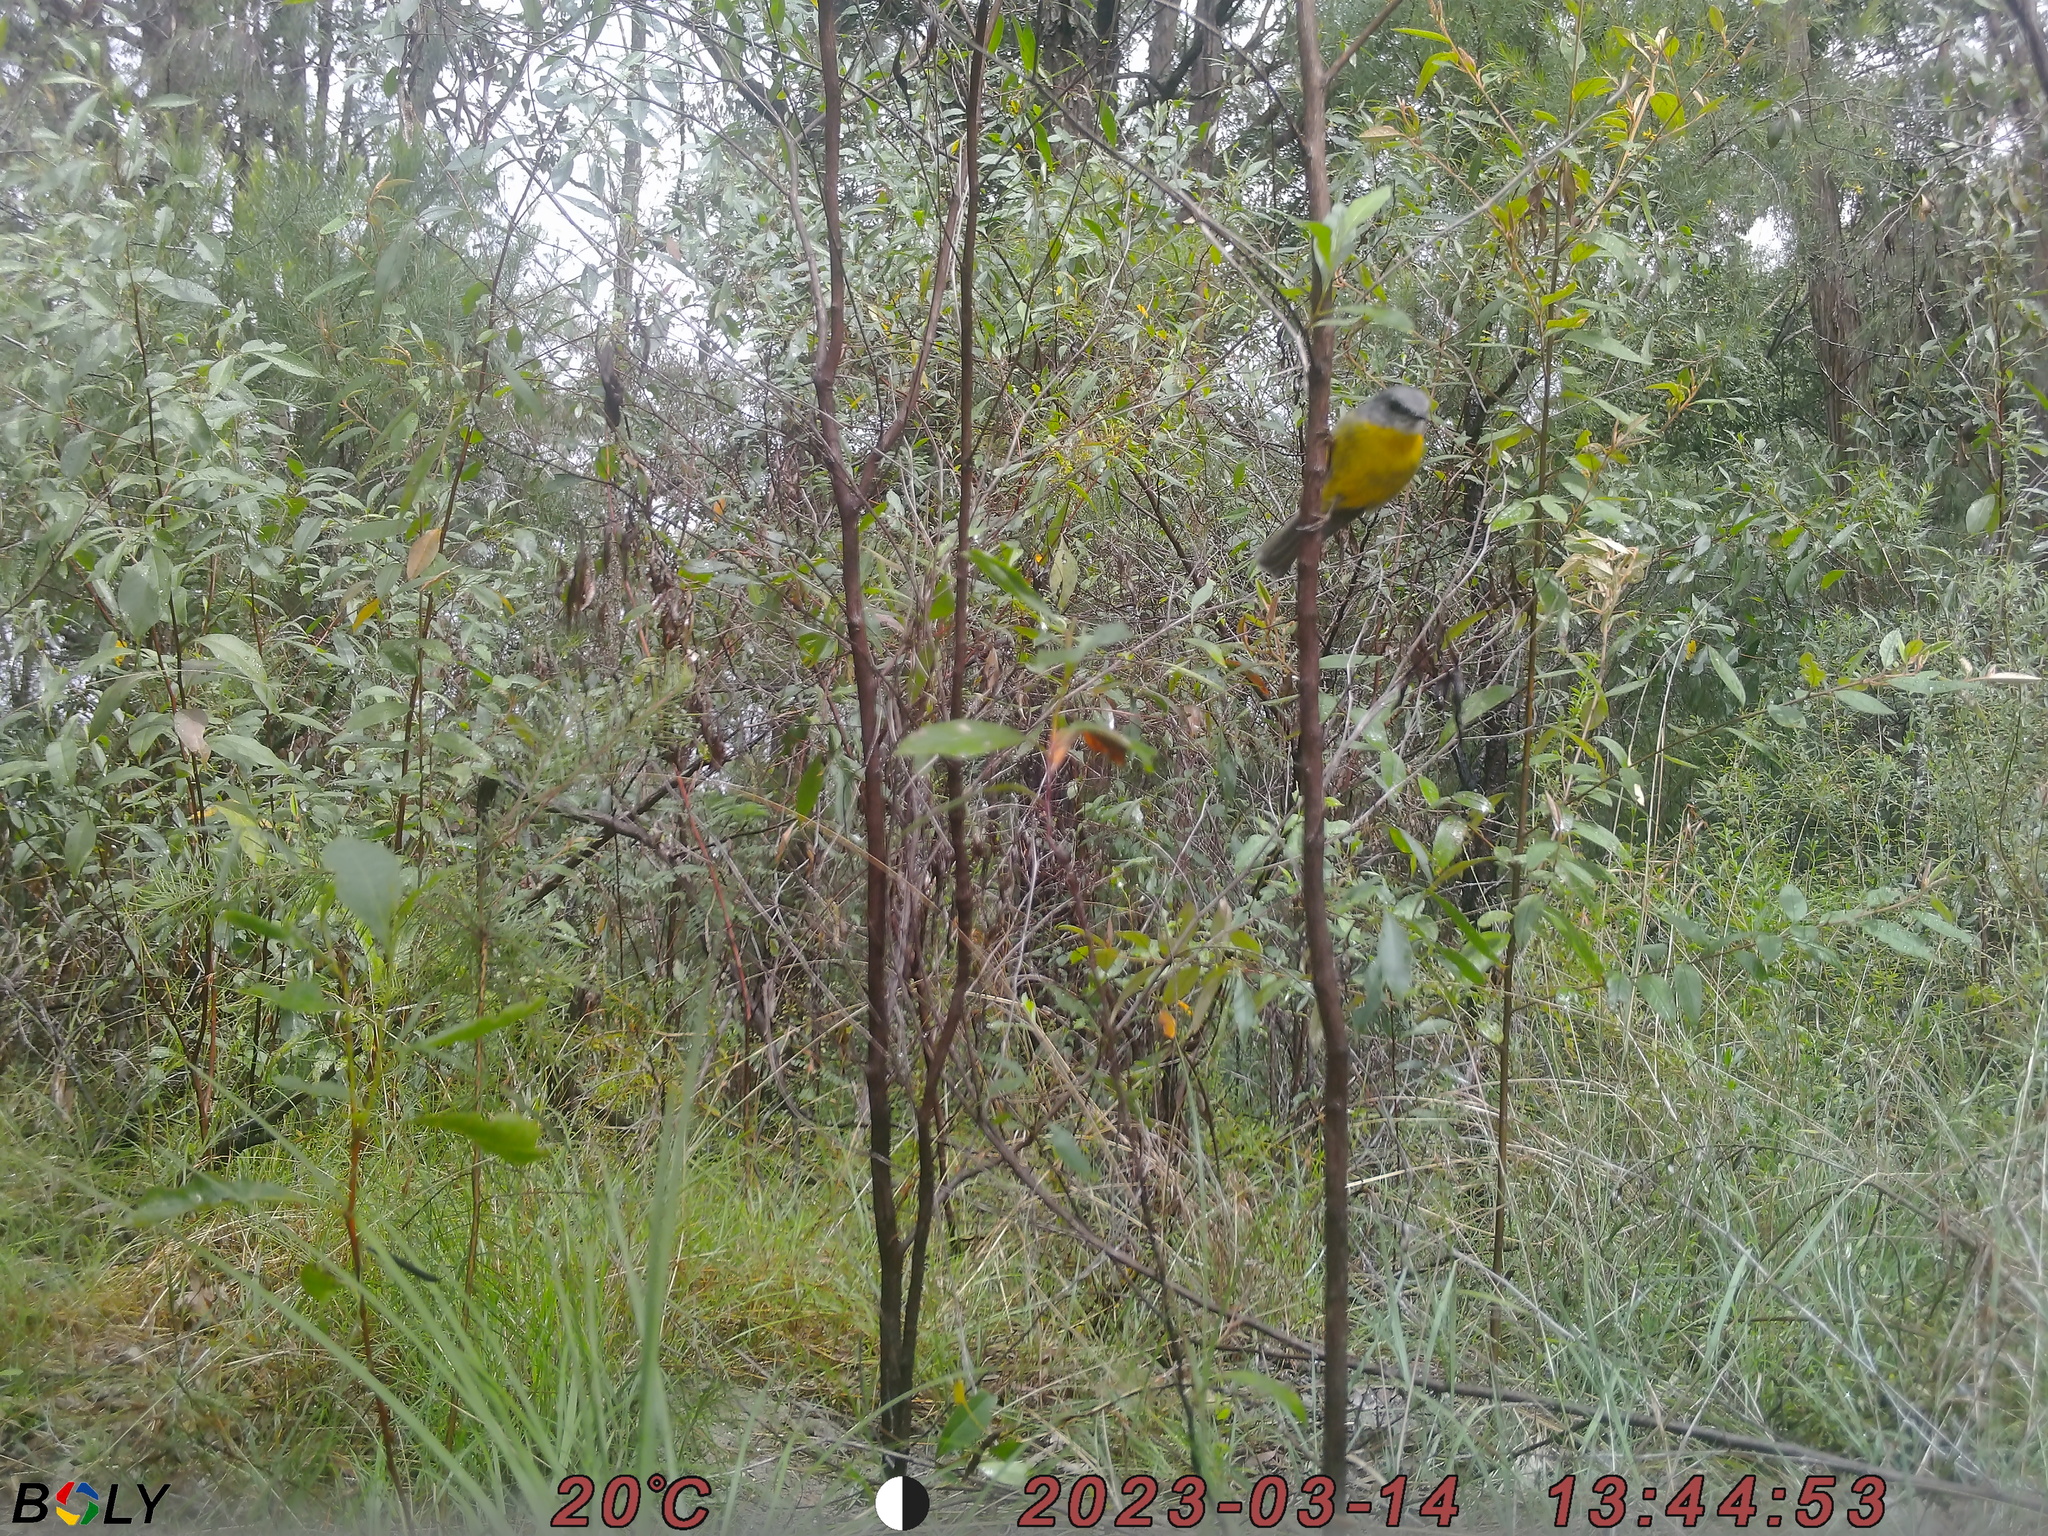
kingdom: Animalia
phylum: Chordata
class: Aves
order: Passeriformes
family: Petroicidae
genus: Eopsaltria
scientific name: Eopsaltria australis
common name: Eastern yellow robin
